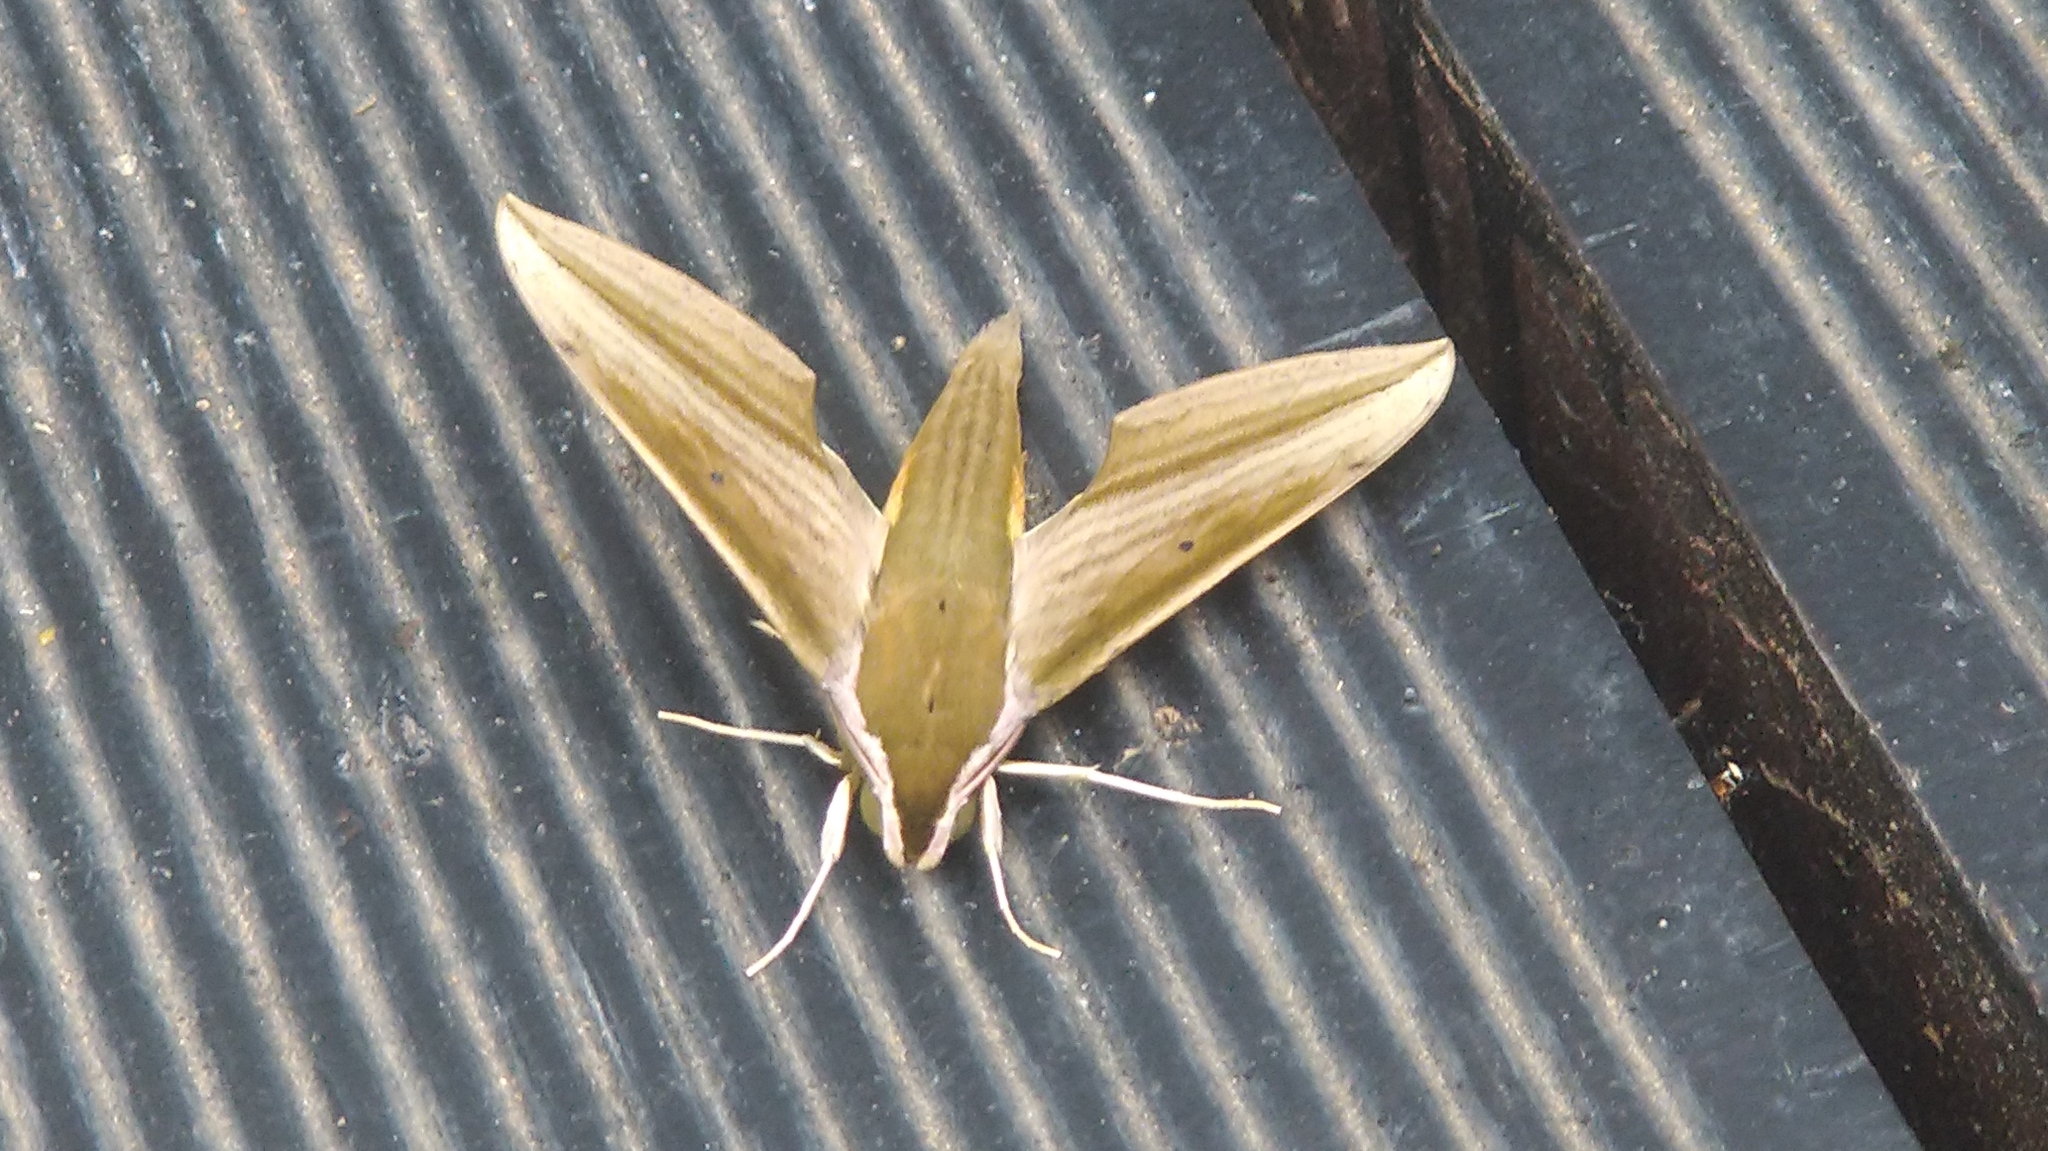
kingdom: Animalia
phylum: Arthropoda
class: Insecta
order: Lepidoptera
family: Sphingidae
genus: Cechetra
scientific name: Cechetra minor
